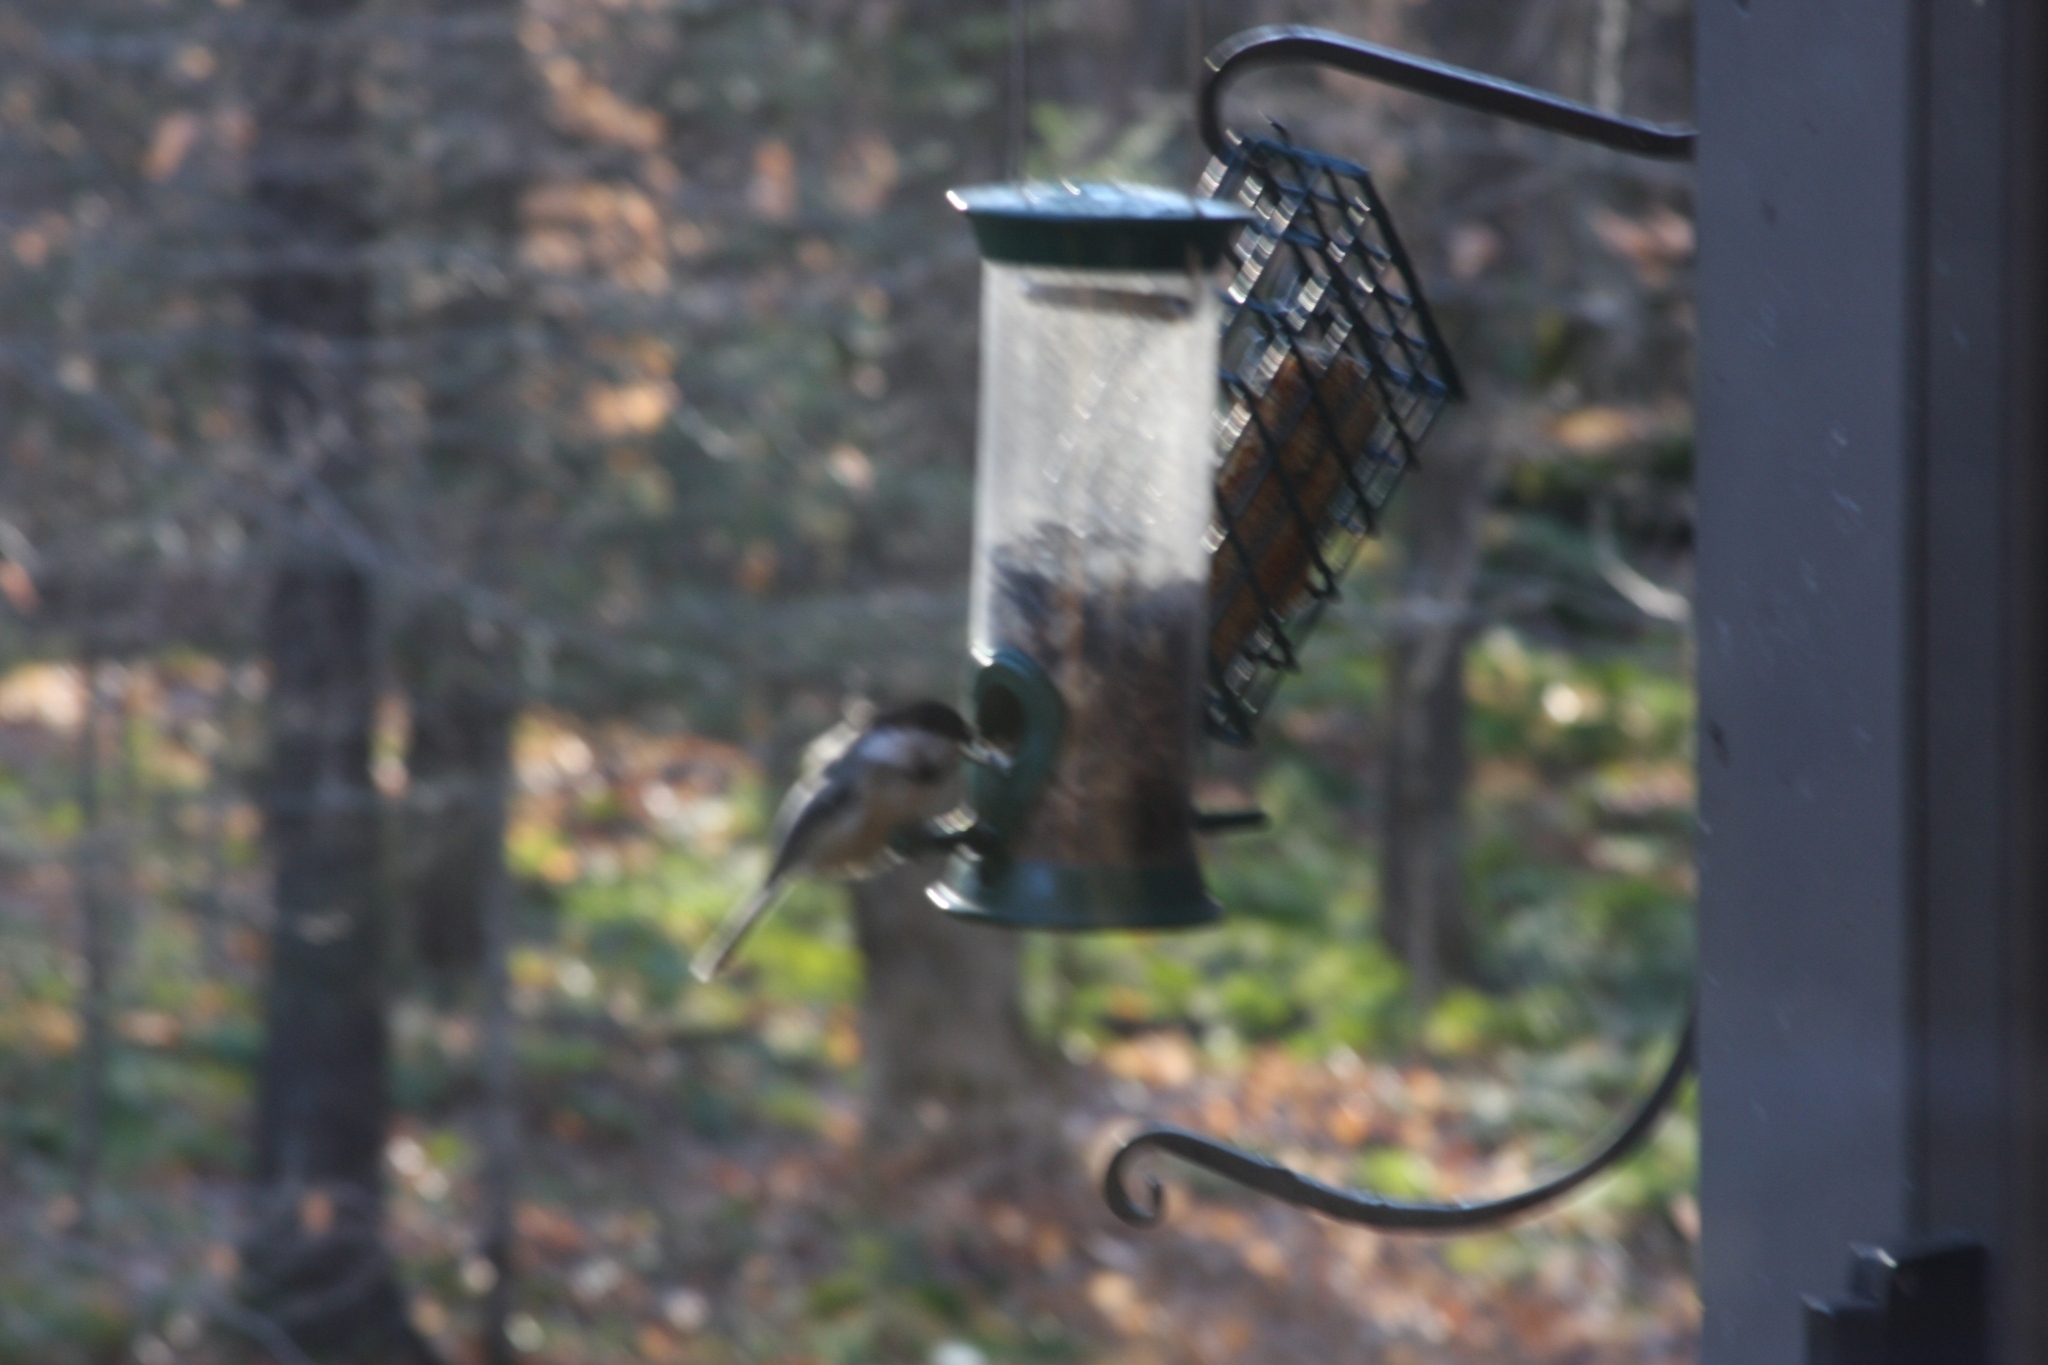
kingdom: Animalia
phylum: Chordata
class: Aves
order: Passeriformes
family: Paridae
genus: Poecile
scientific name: Poecile atricapillus
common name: Black-capped chickadee
